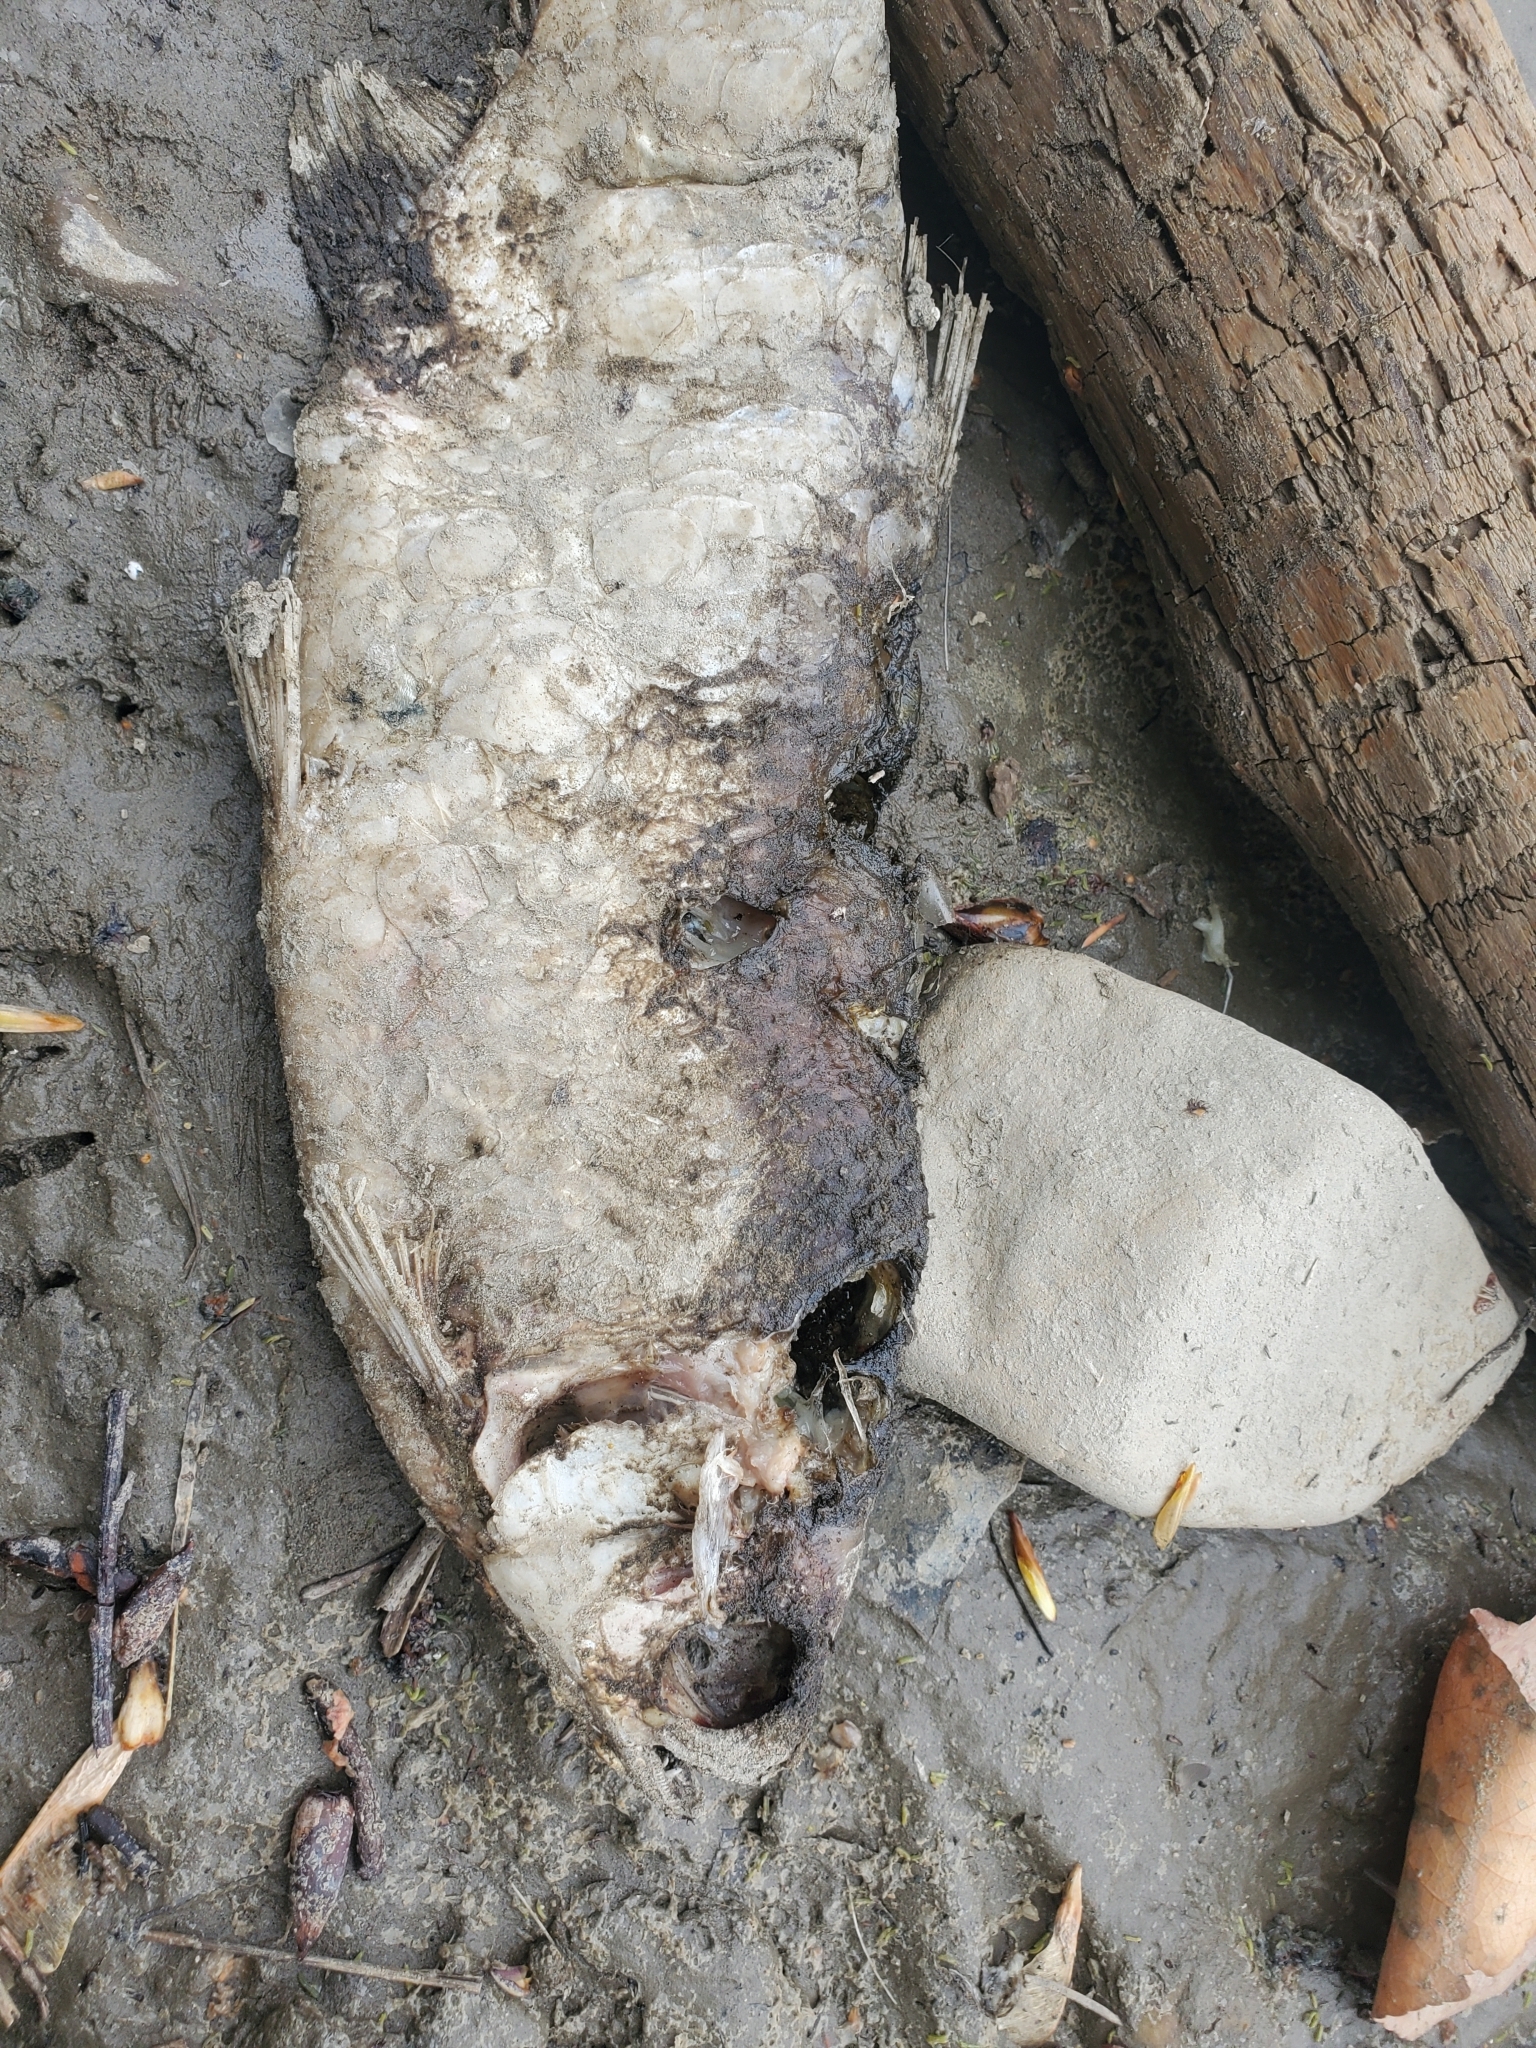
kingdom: Animalia
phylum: Chordata
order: Osteoglossiformes
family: Hiodontidae
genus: Hiodon
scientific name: Hiodon alosoides
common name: Goldeye
